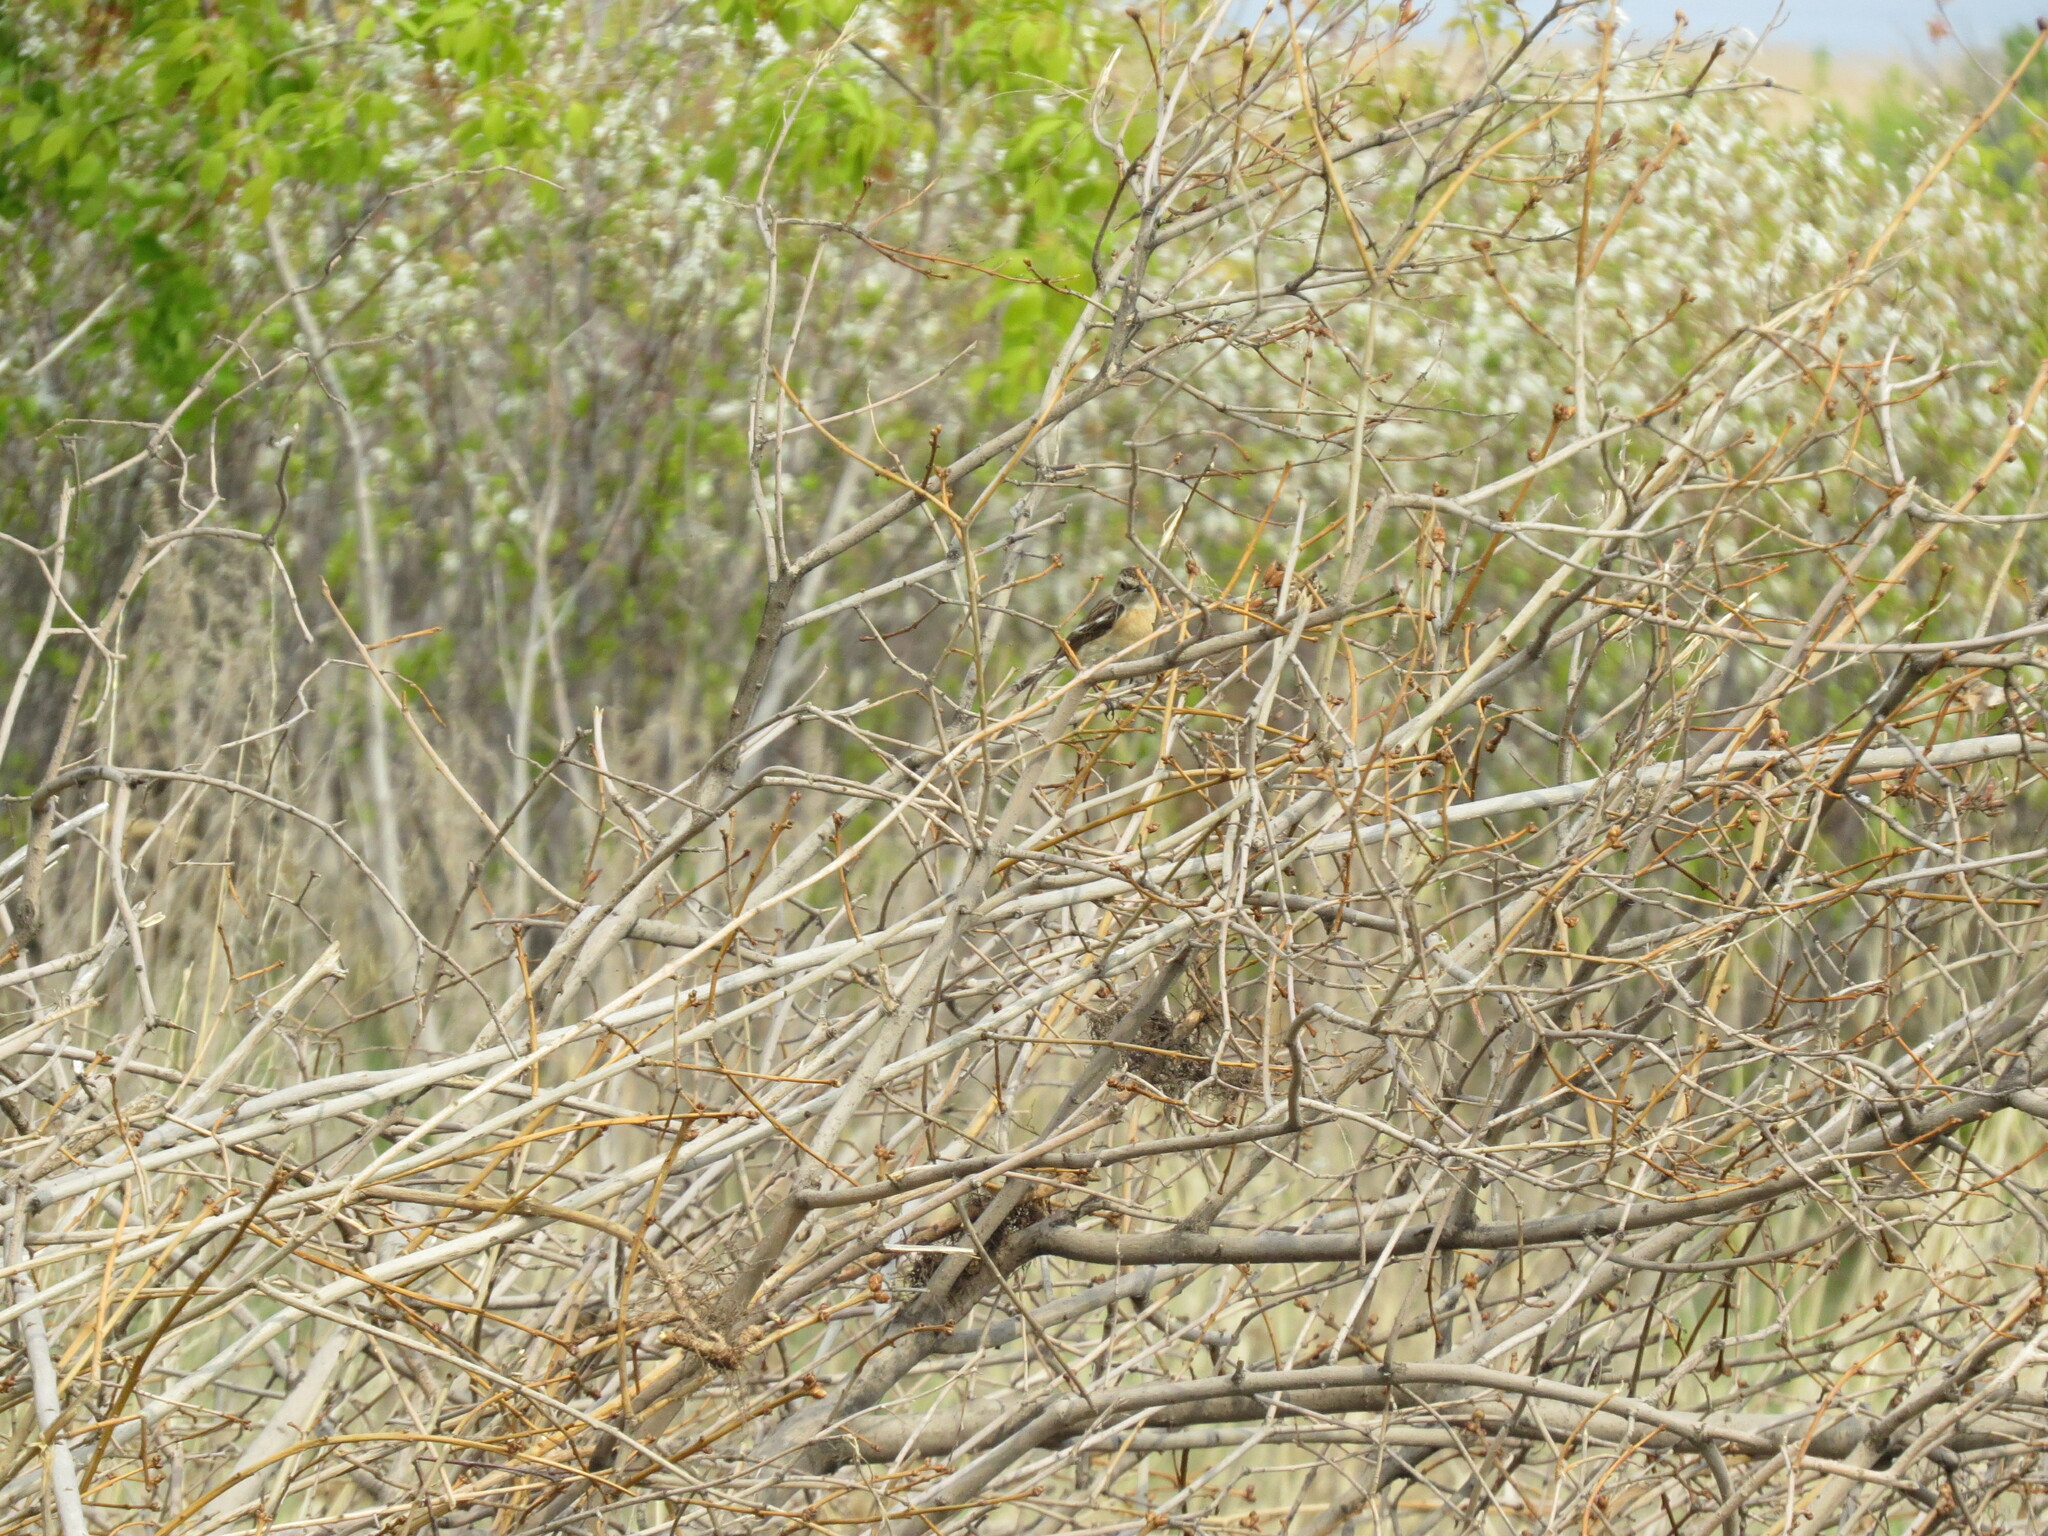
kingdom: Animalia
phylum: Chordata
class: Aves
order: Passeriformes
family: Muscicapidae
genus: Saxicola
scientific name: Saxicola rubetra
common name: Whinchat
